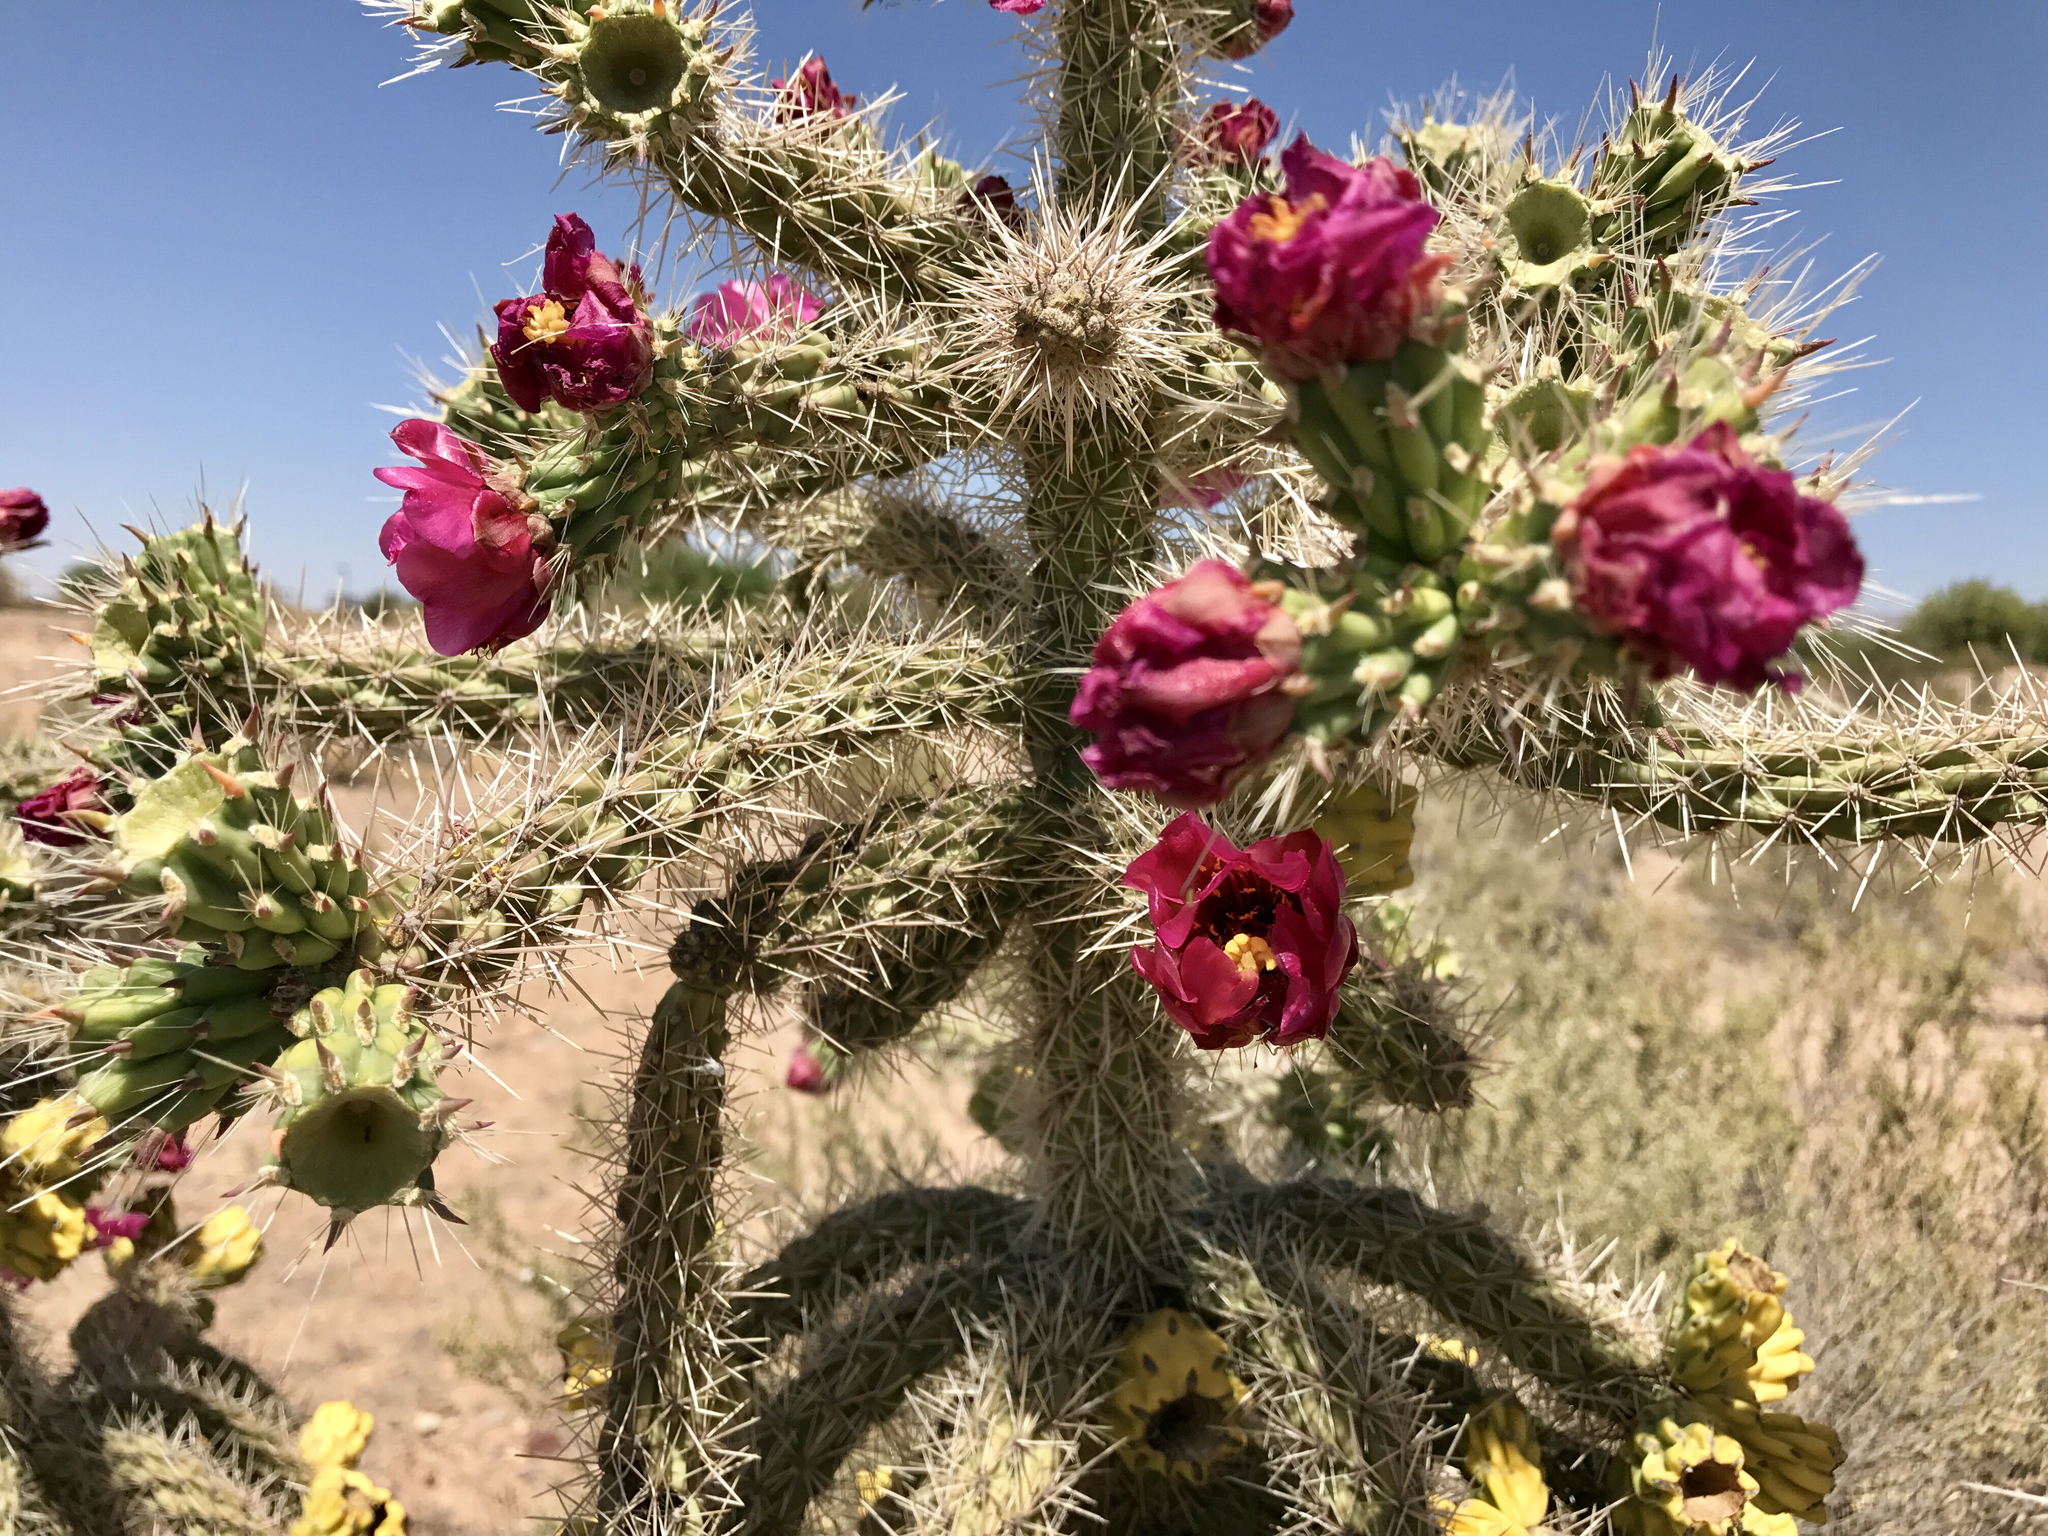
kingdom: Plantae
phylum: Tracheophyta
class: Magnoliopsida
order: Caryophyllales
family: Cactaceae
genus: Cylindropuntia
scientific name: Cylindropuntia imbricata
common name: Candelabrum cactus
